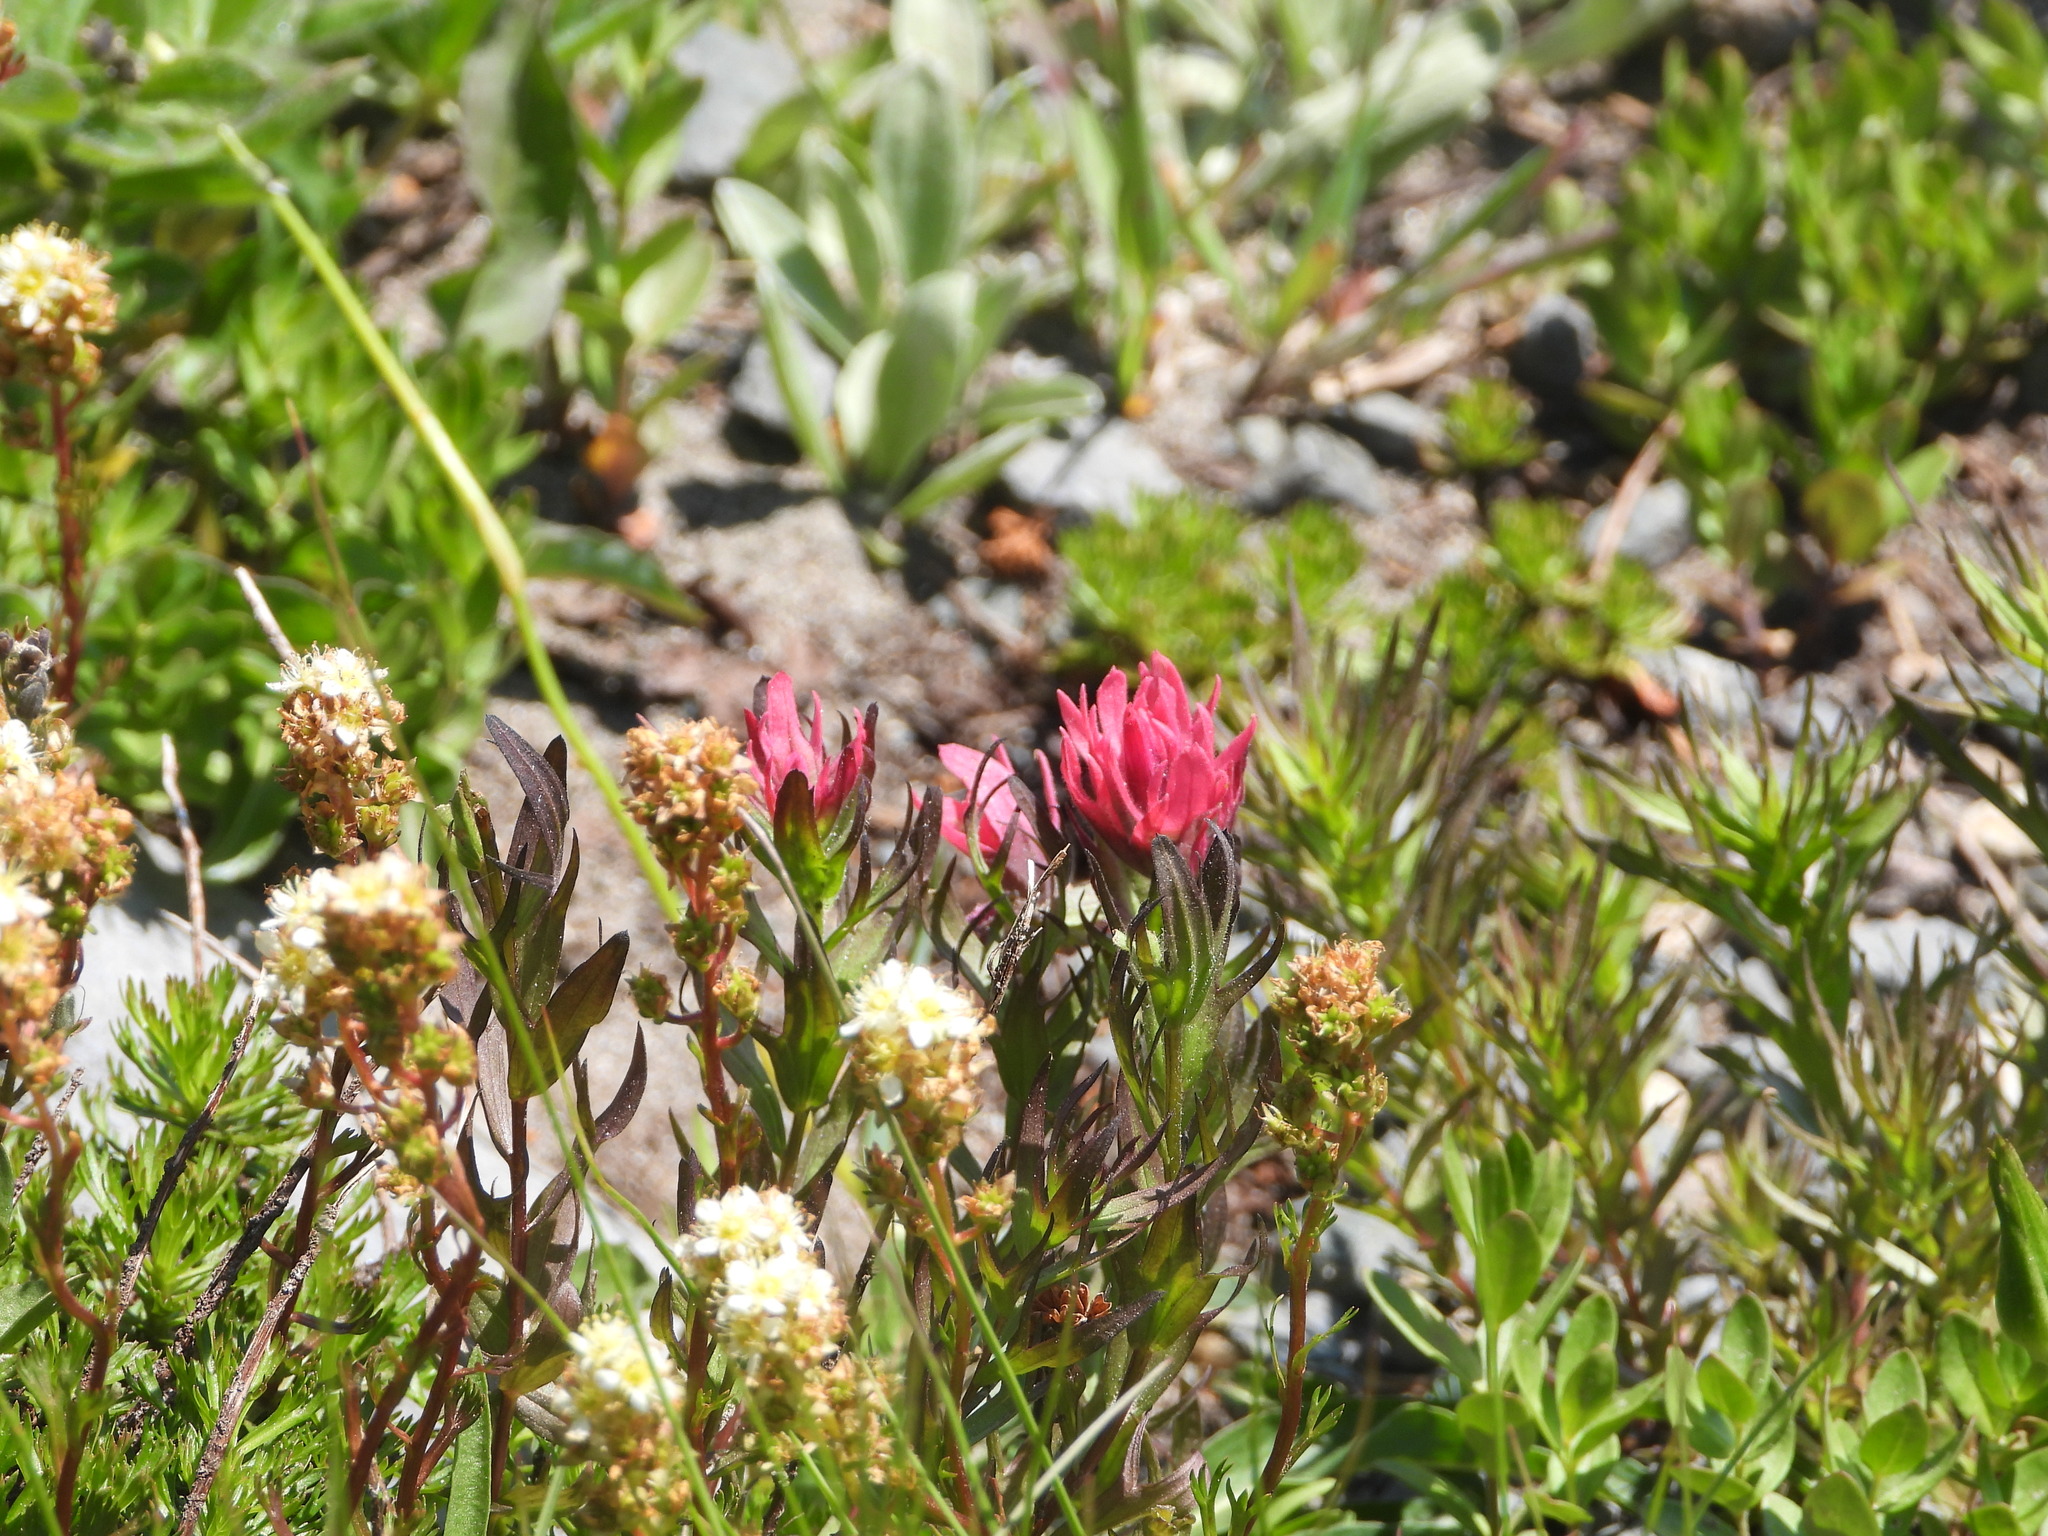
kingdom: Plantae
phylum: Tracheophyta
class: Magnoliopsida
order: Lamiales
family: Orobanchaceae
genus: Castilleja
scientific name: Castilleja parviflora
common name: Mountain paintbrush
